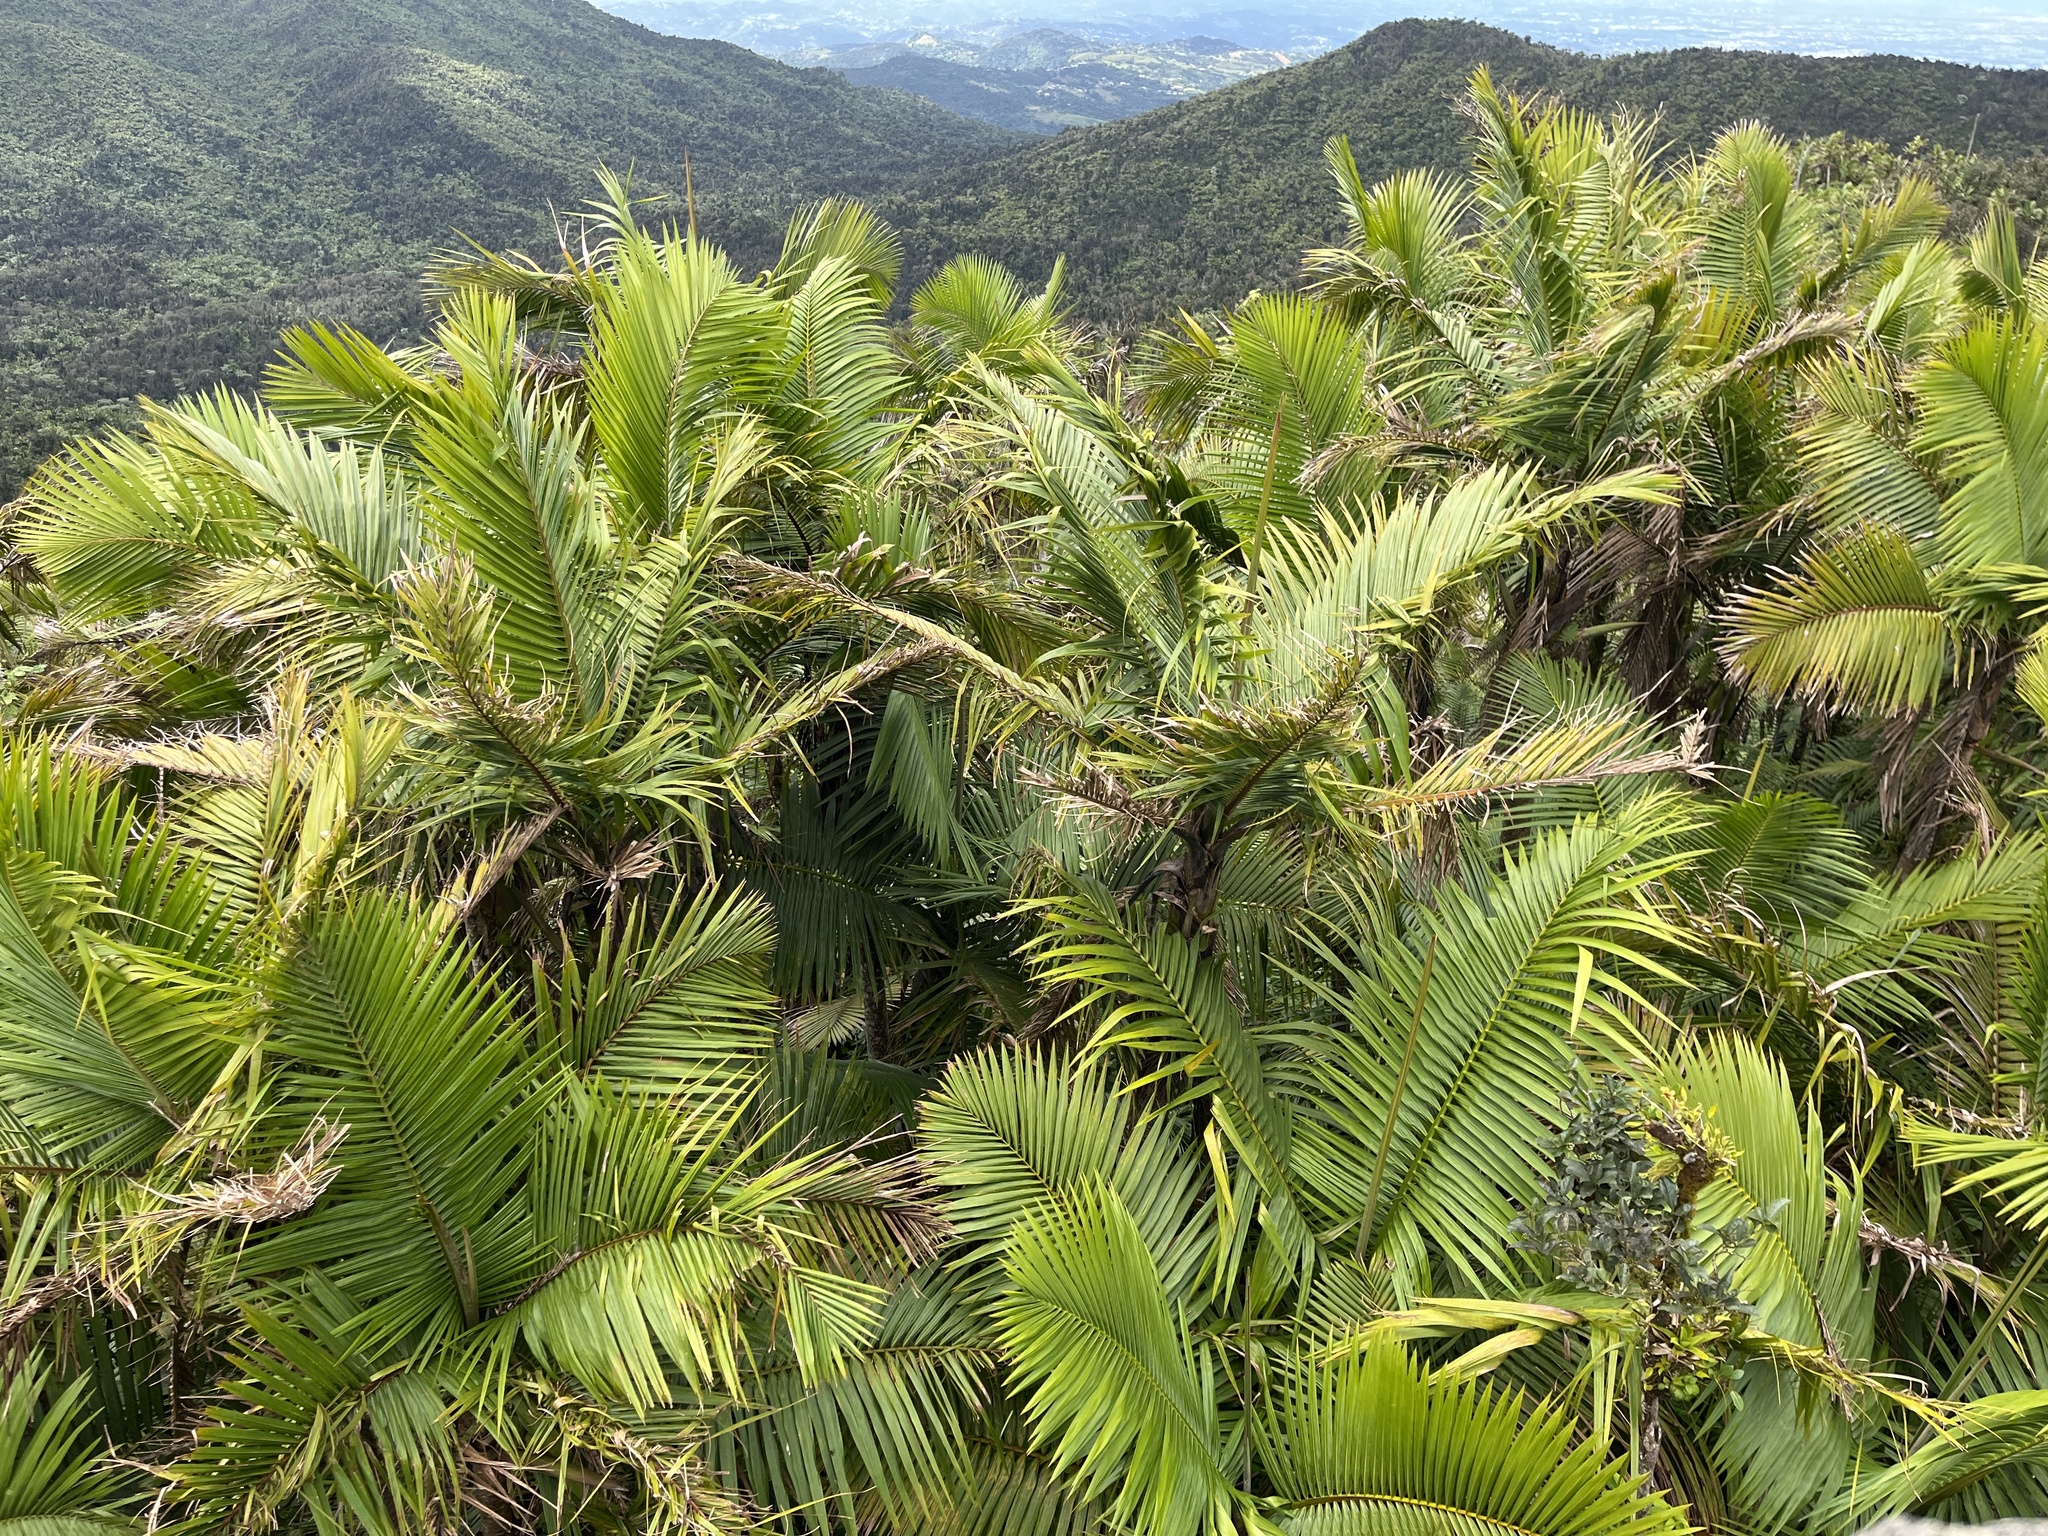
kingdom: Plantae
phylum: Tracheophyta
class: Liliopsida
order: Arecales
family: Arecaceae
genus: Prestoea
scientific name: Prestoea acuminata
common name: Sierran palm
